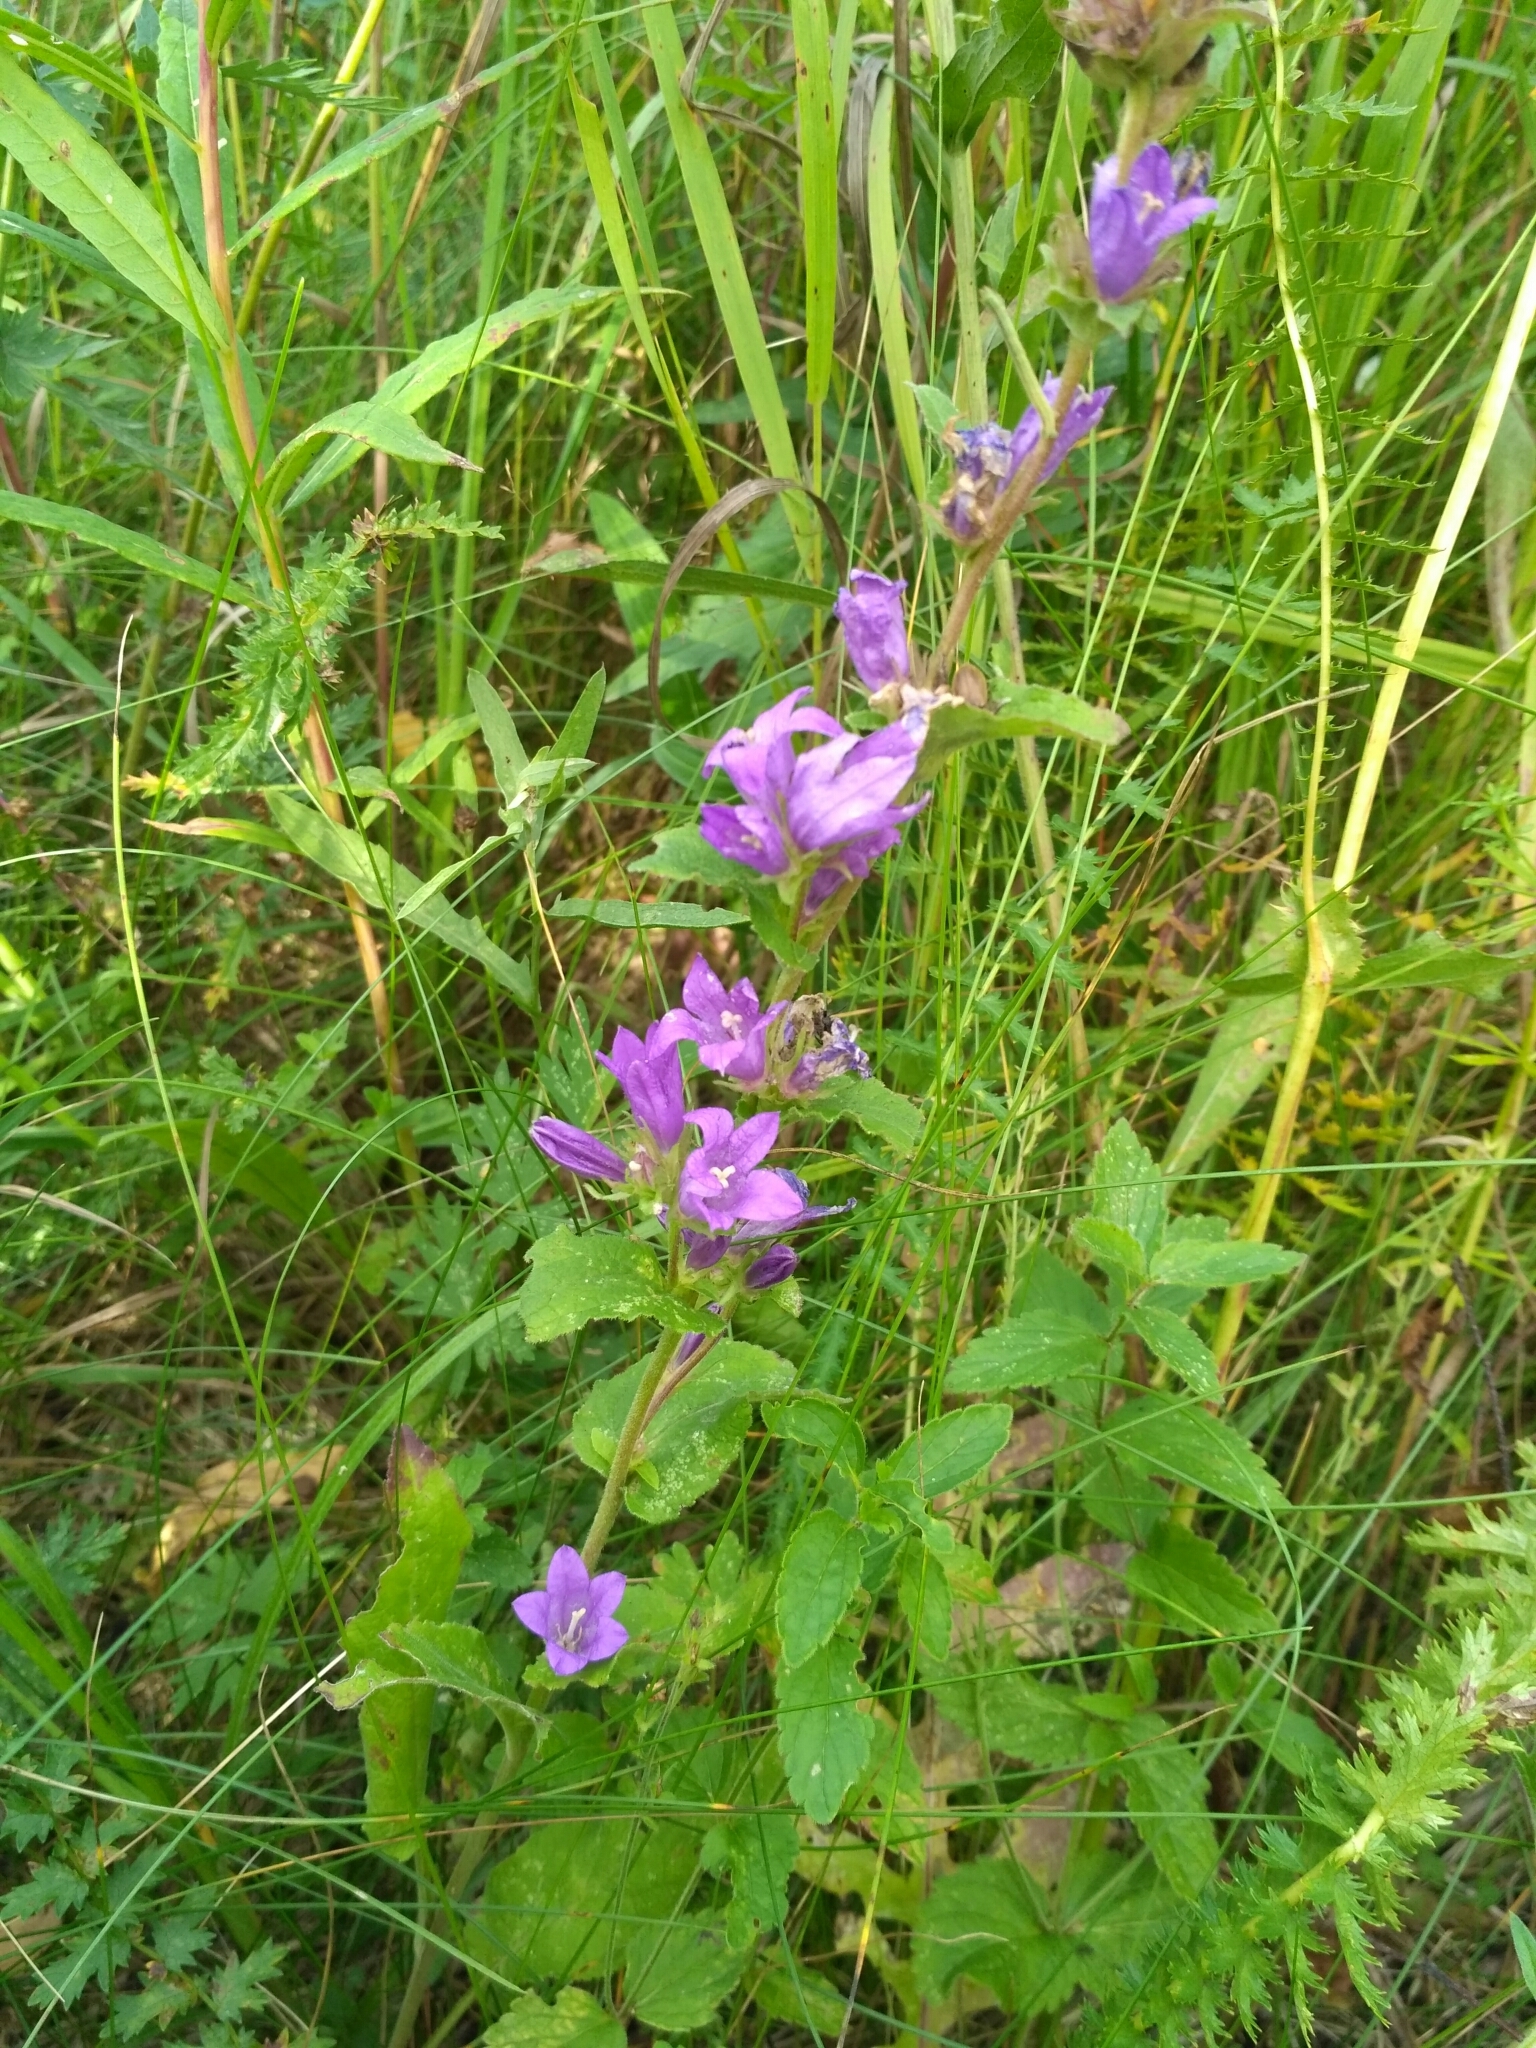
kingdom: Plantae
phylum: Tracheophyta
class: Magnoliopsida
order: Asterales
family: Campanulaceae
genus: Campanula
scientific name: Campanula glomerata
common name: Clustered bellflower
